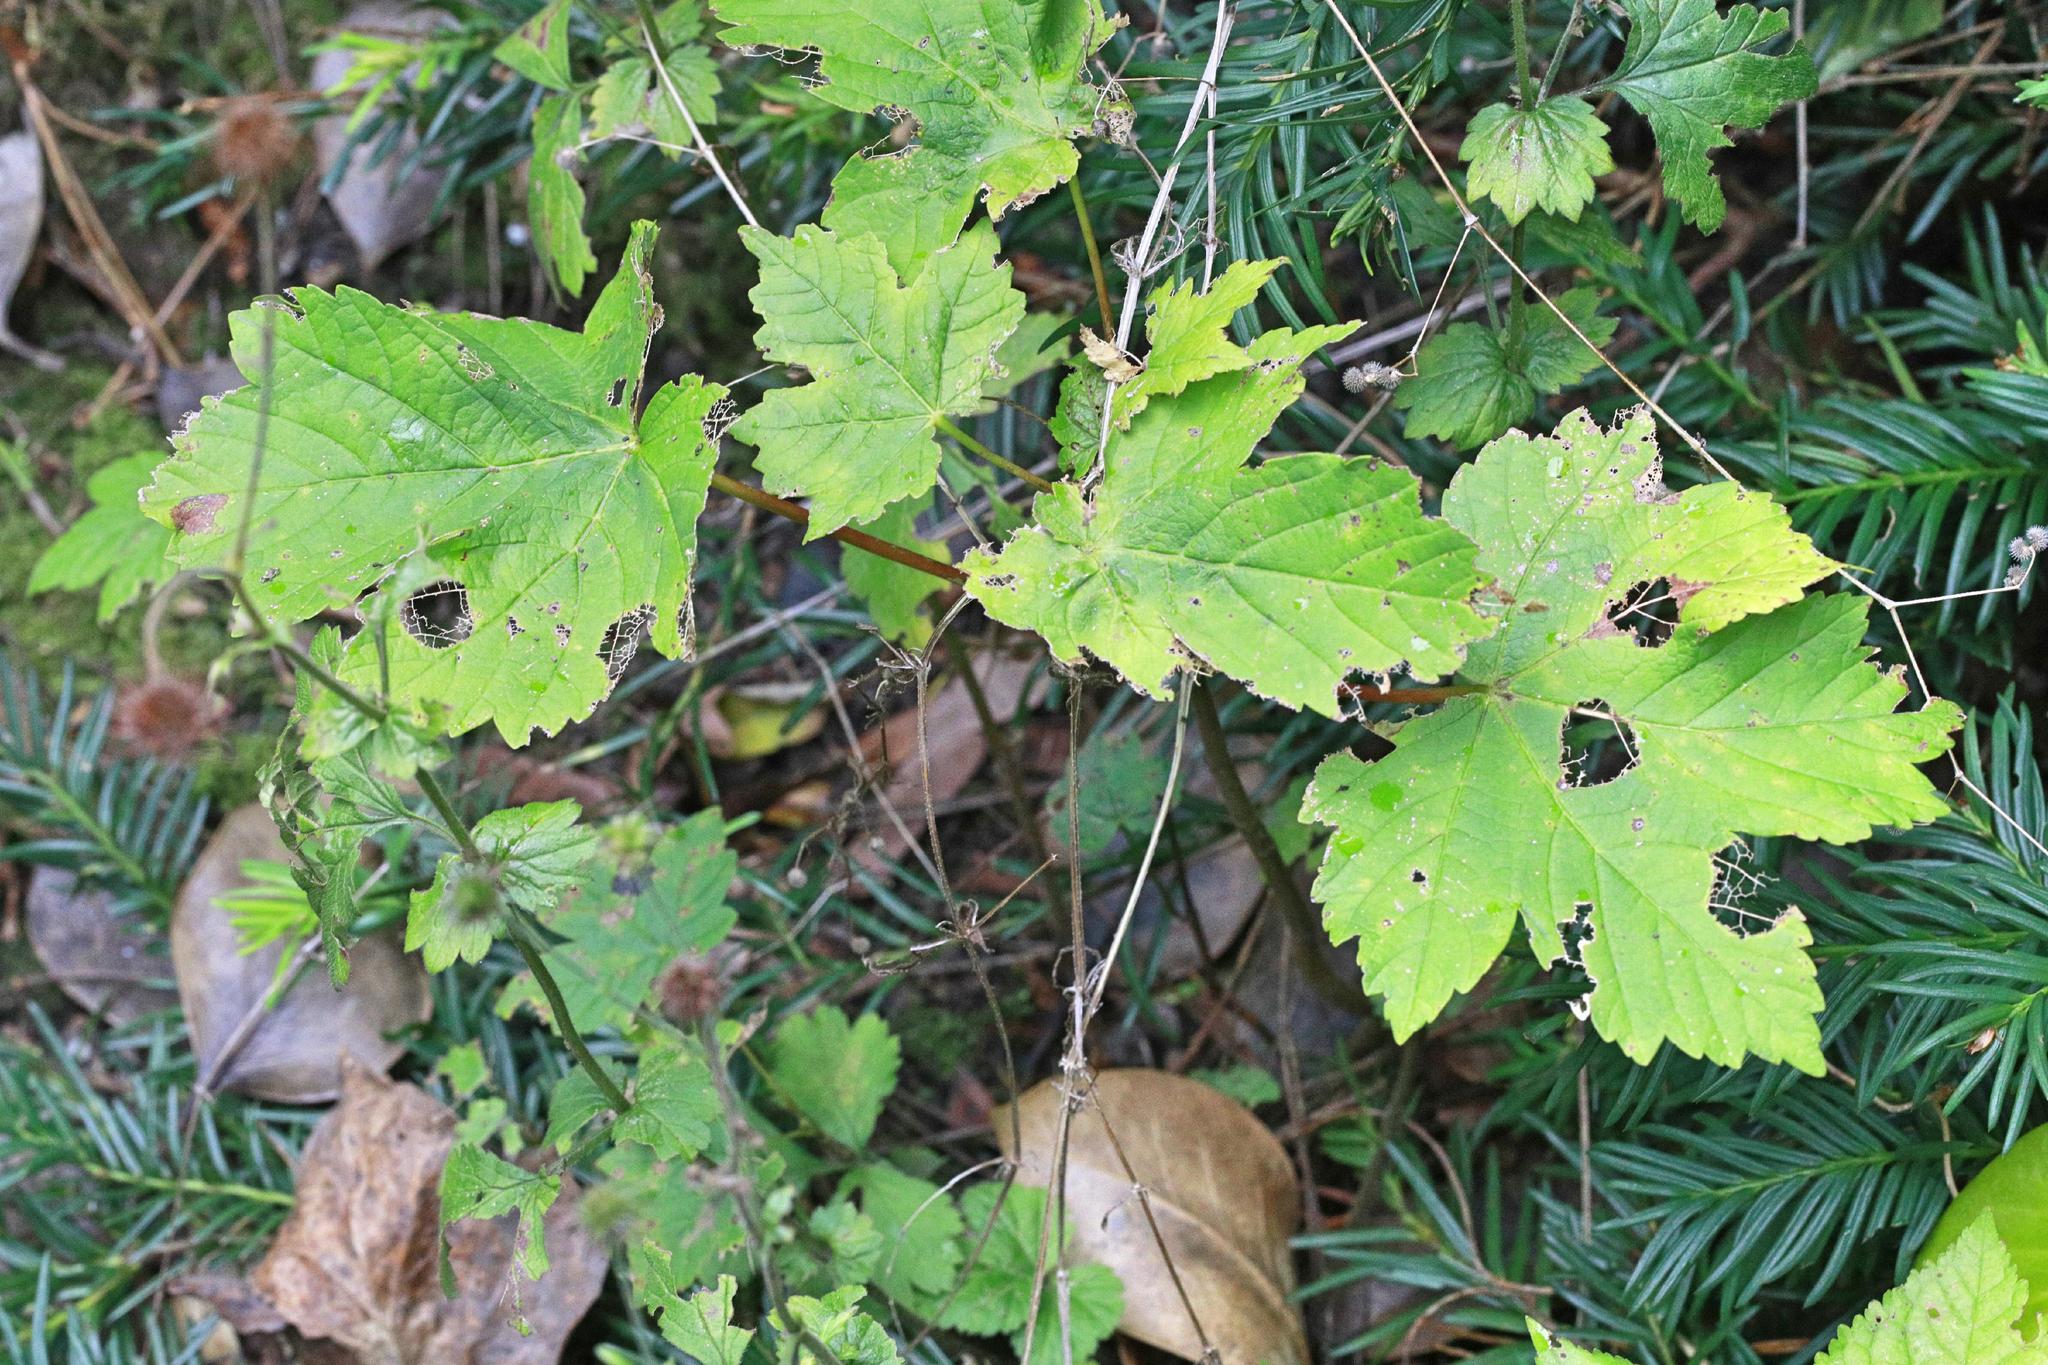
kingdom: Plantae
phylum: Tracheophyta
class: Magnoliopsida
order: Sapindales
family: Sapindaceae
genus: Acer
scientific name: Acer pseudoplatanus
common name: Sycamore
